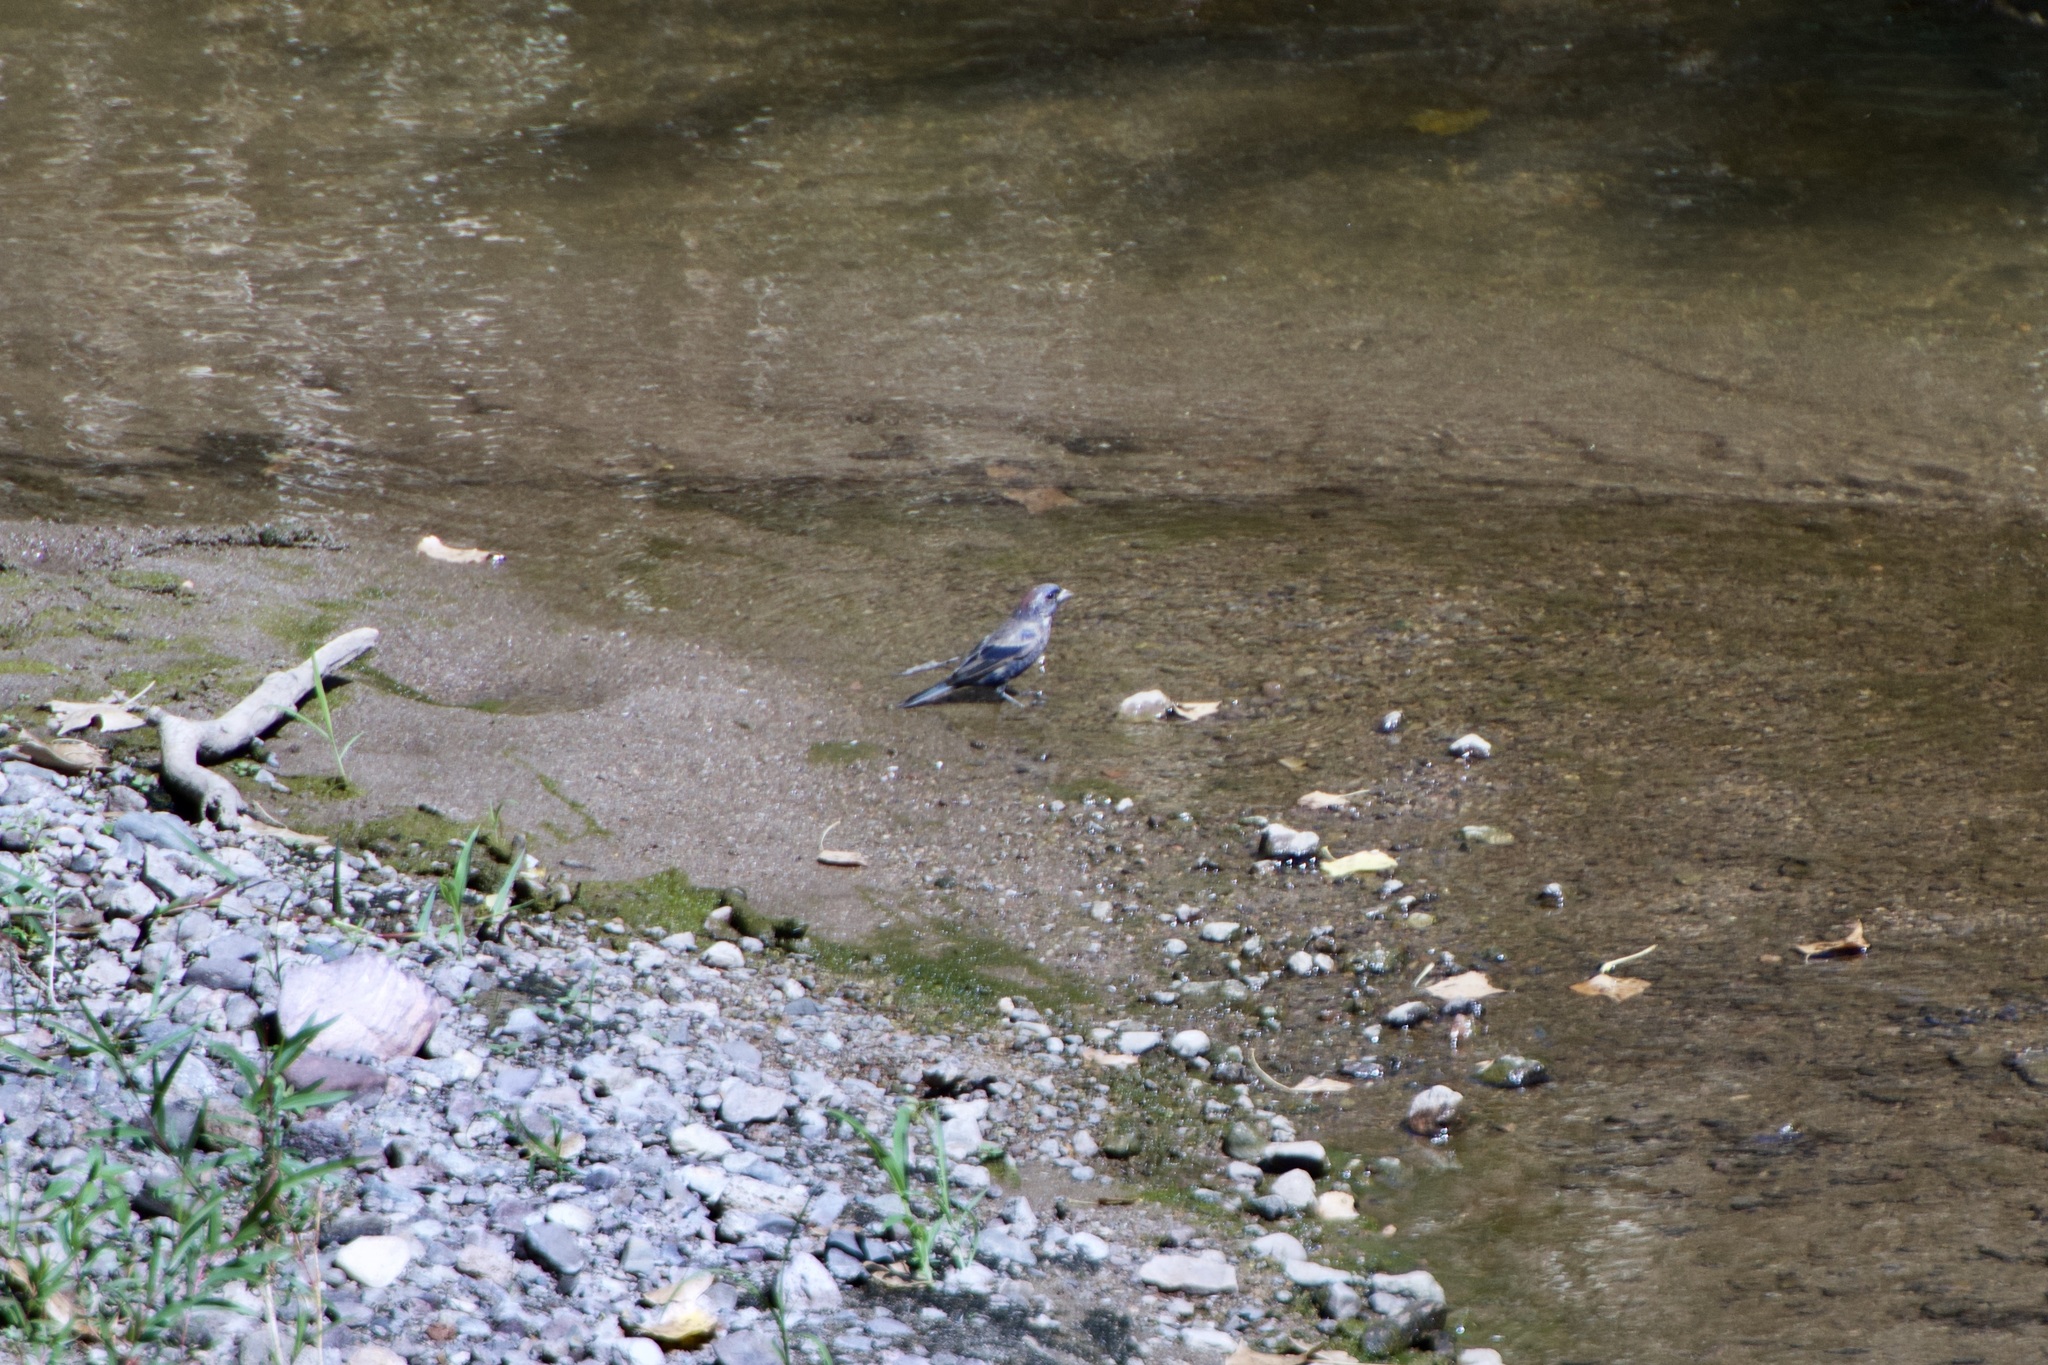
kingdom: Animalia
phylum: Chordata
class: Aves
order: Passeriformes
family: Cardinalidae
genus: Passerina
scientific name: Passerina versicolor
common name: Varied bunting
